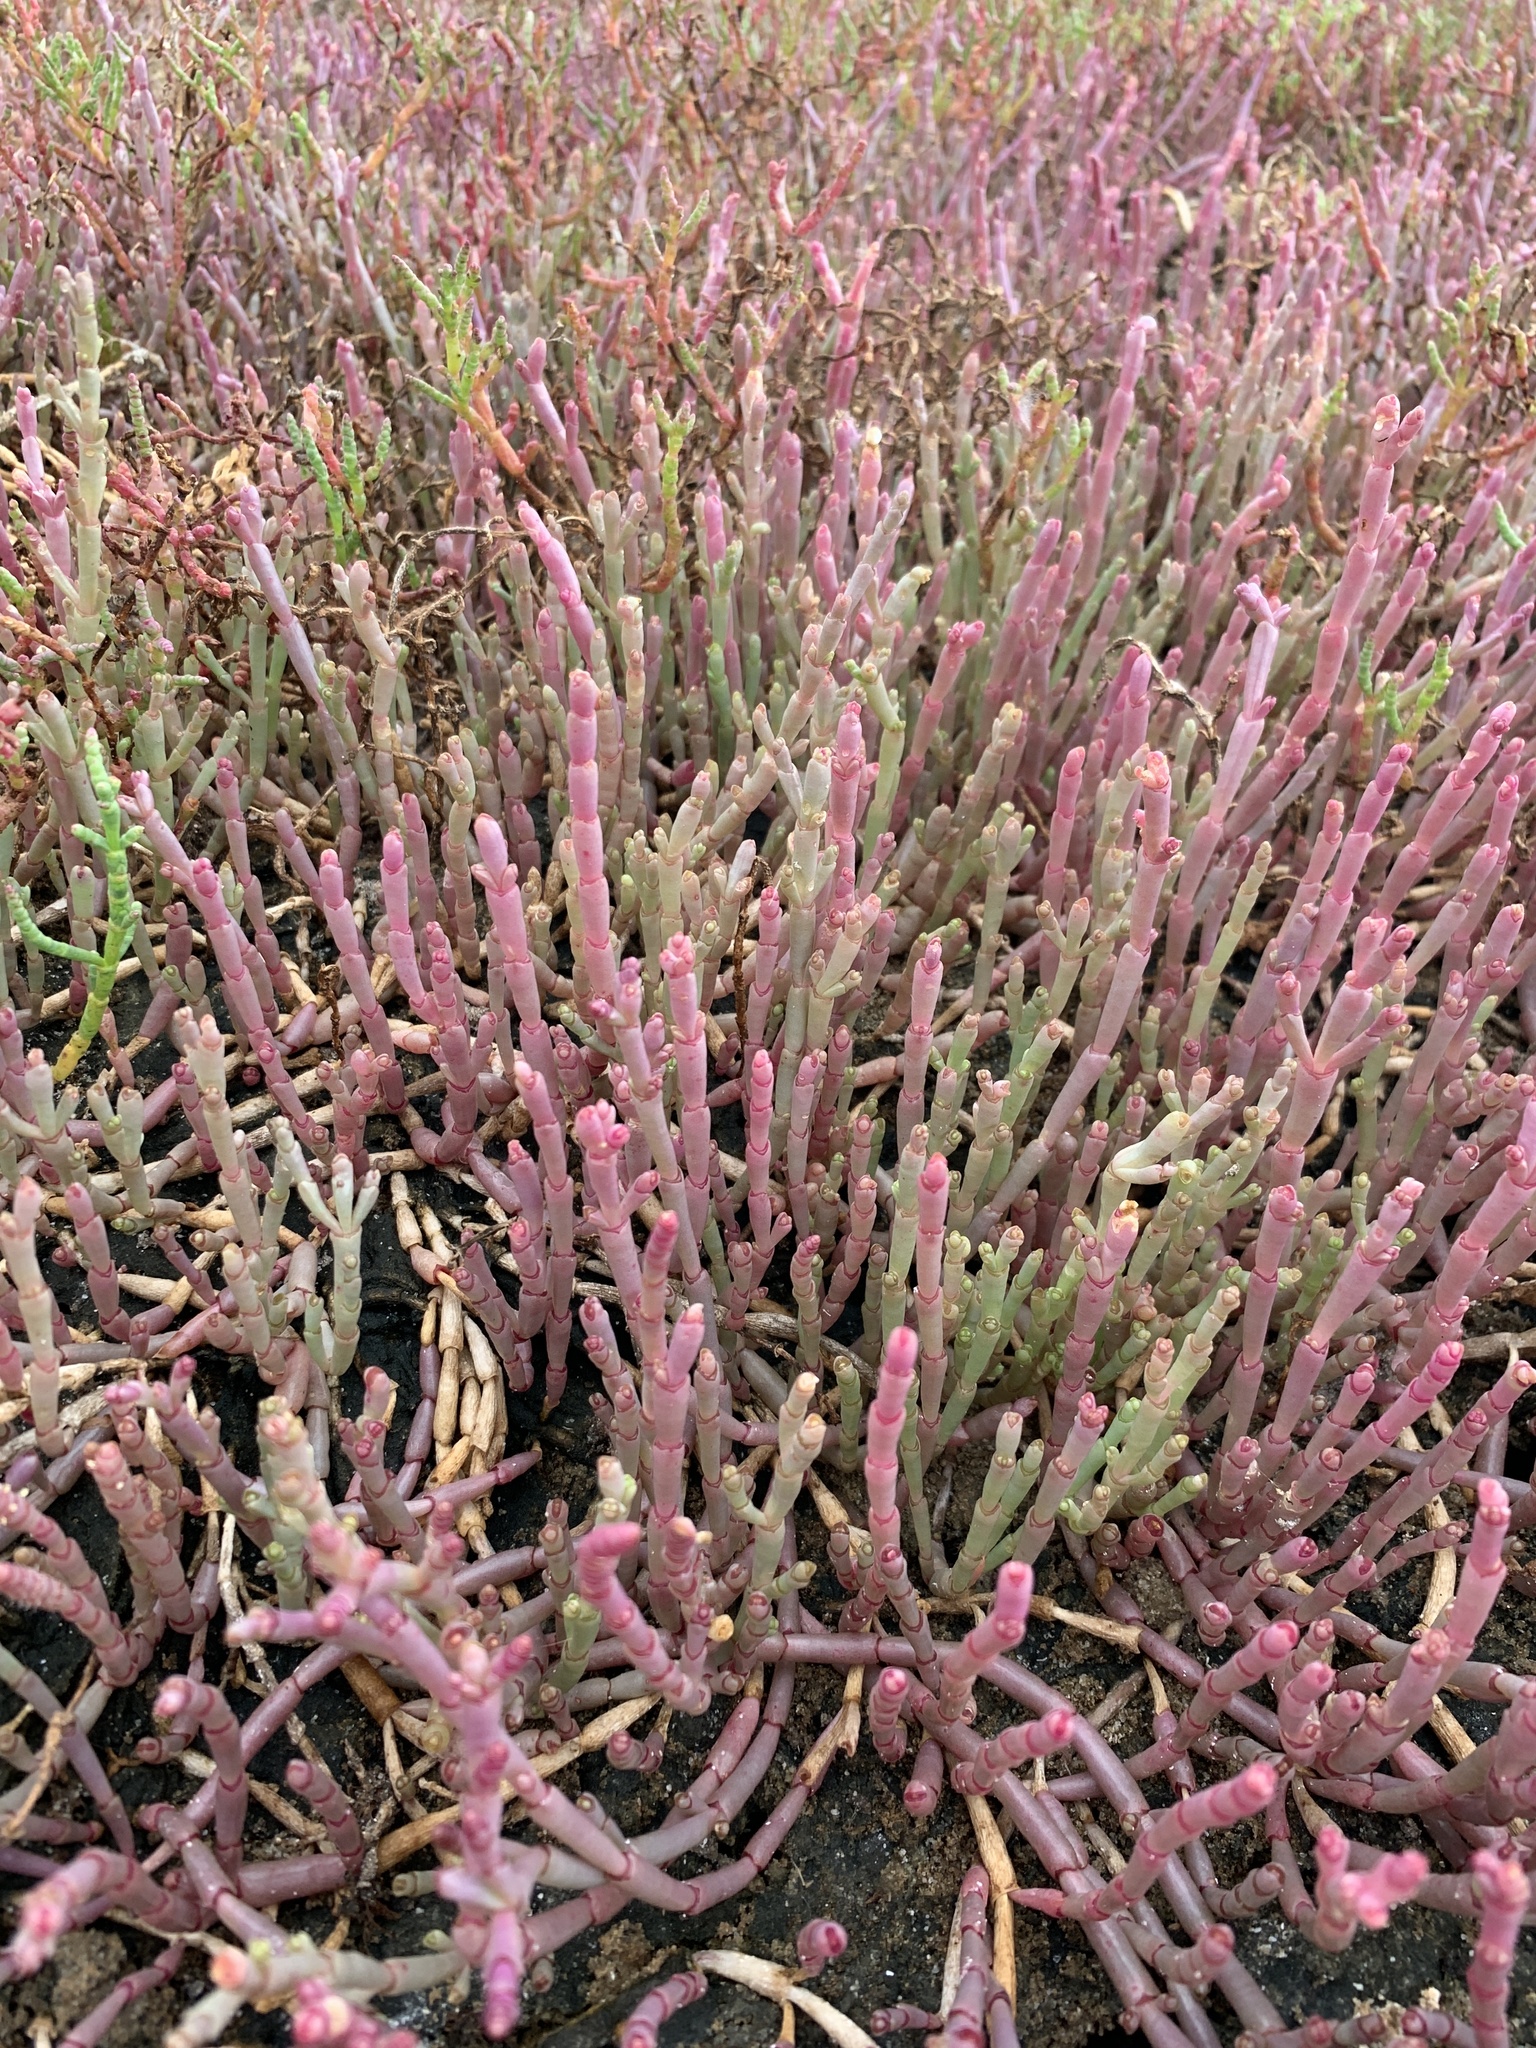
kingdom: Plantae
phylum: Tracheophyta
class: Magnoliopsida
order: Caryophyllales
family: Amaranthaceae
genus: Salicornia
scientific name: Salicornia meyeriana
